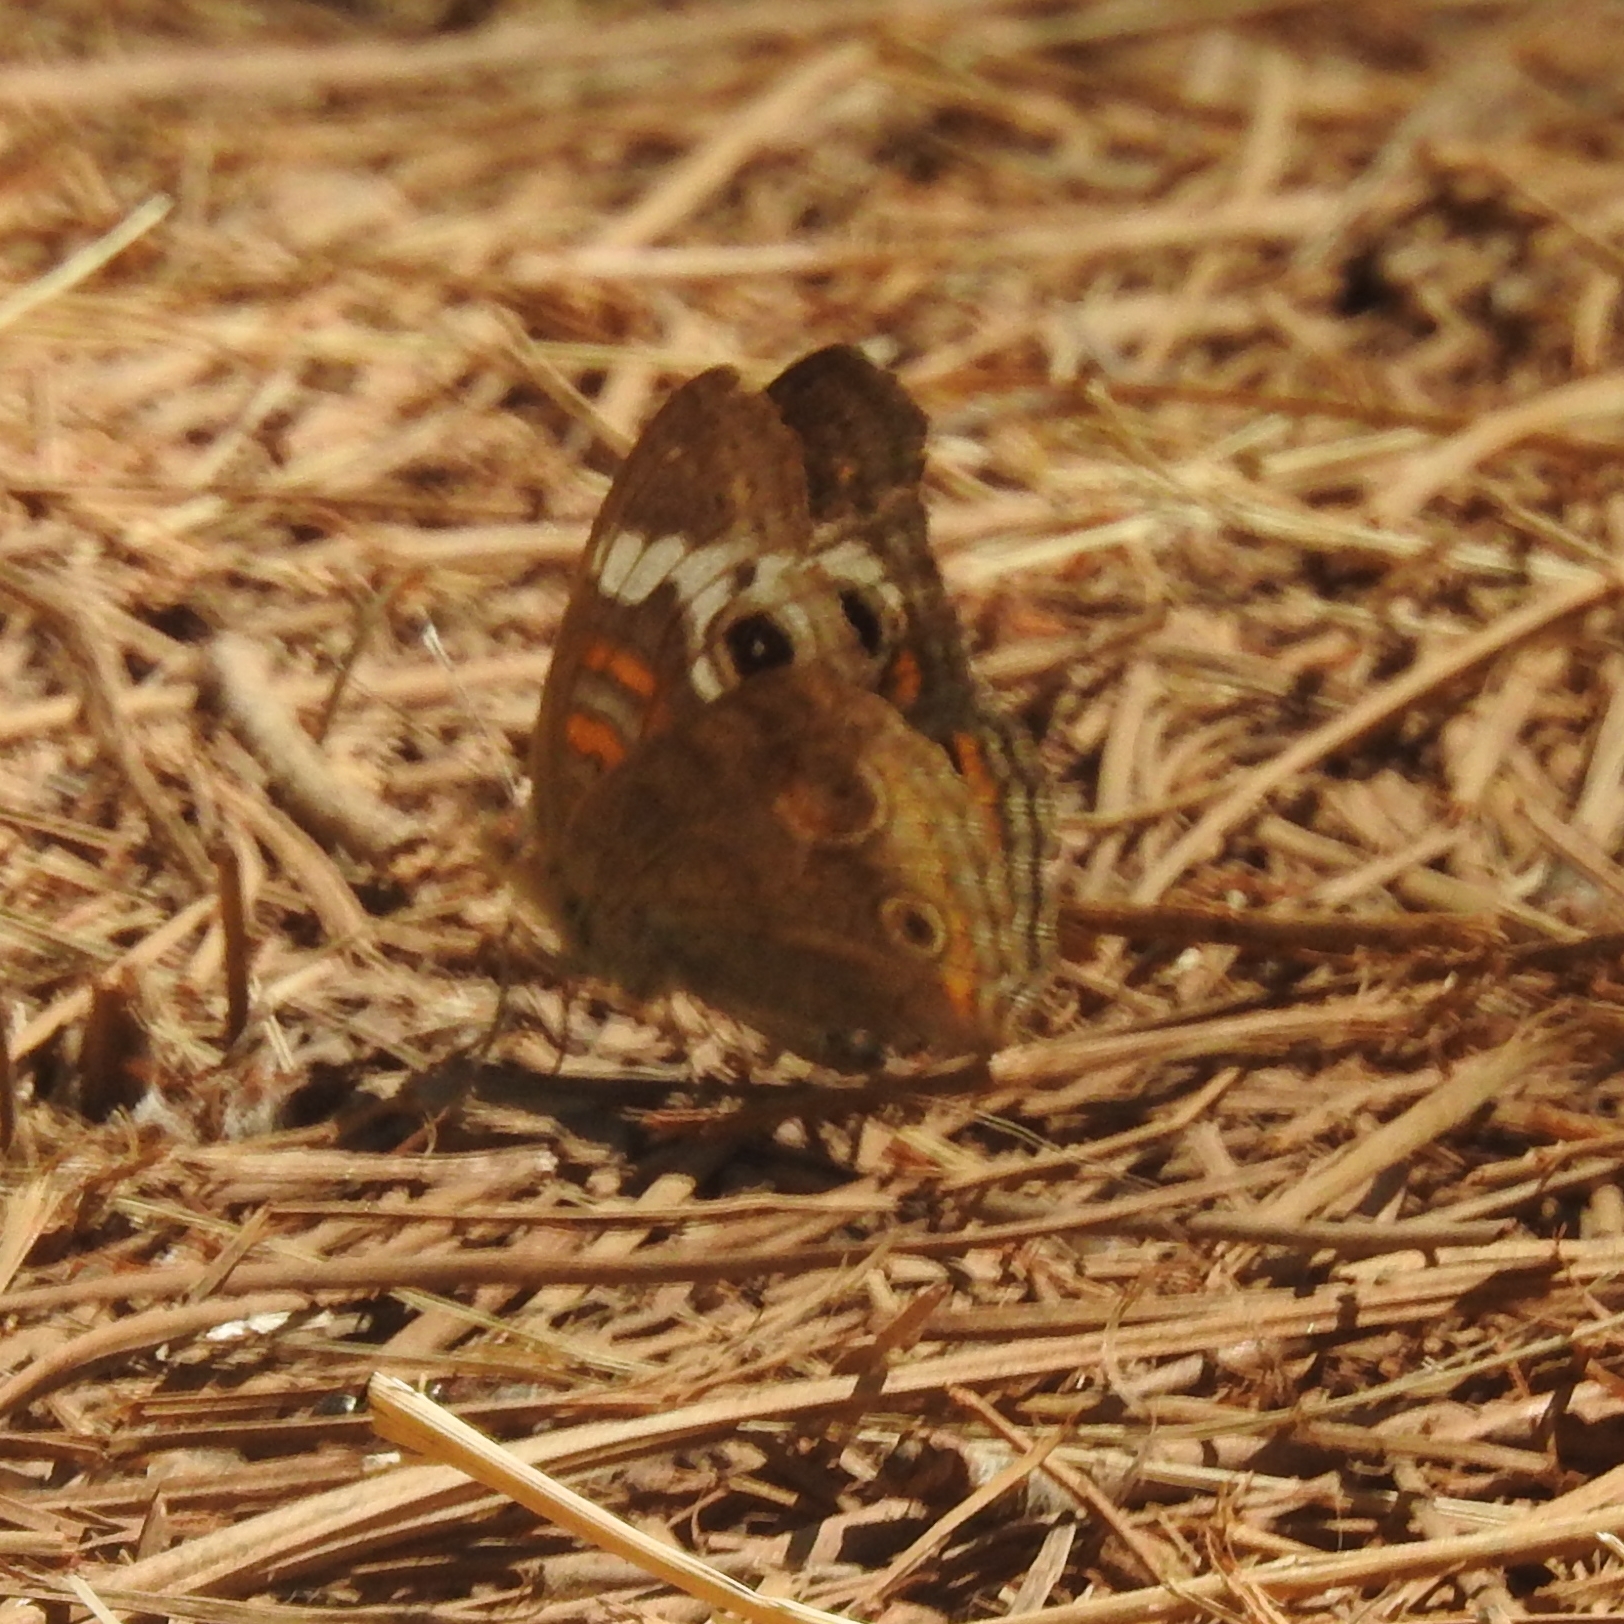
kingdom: Animalia
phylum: Arthropoda
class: Insecta
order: Lepidoptera
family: Nymphalidae
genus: Junonia
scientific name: Junonia grisea
